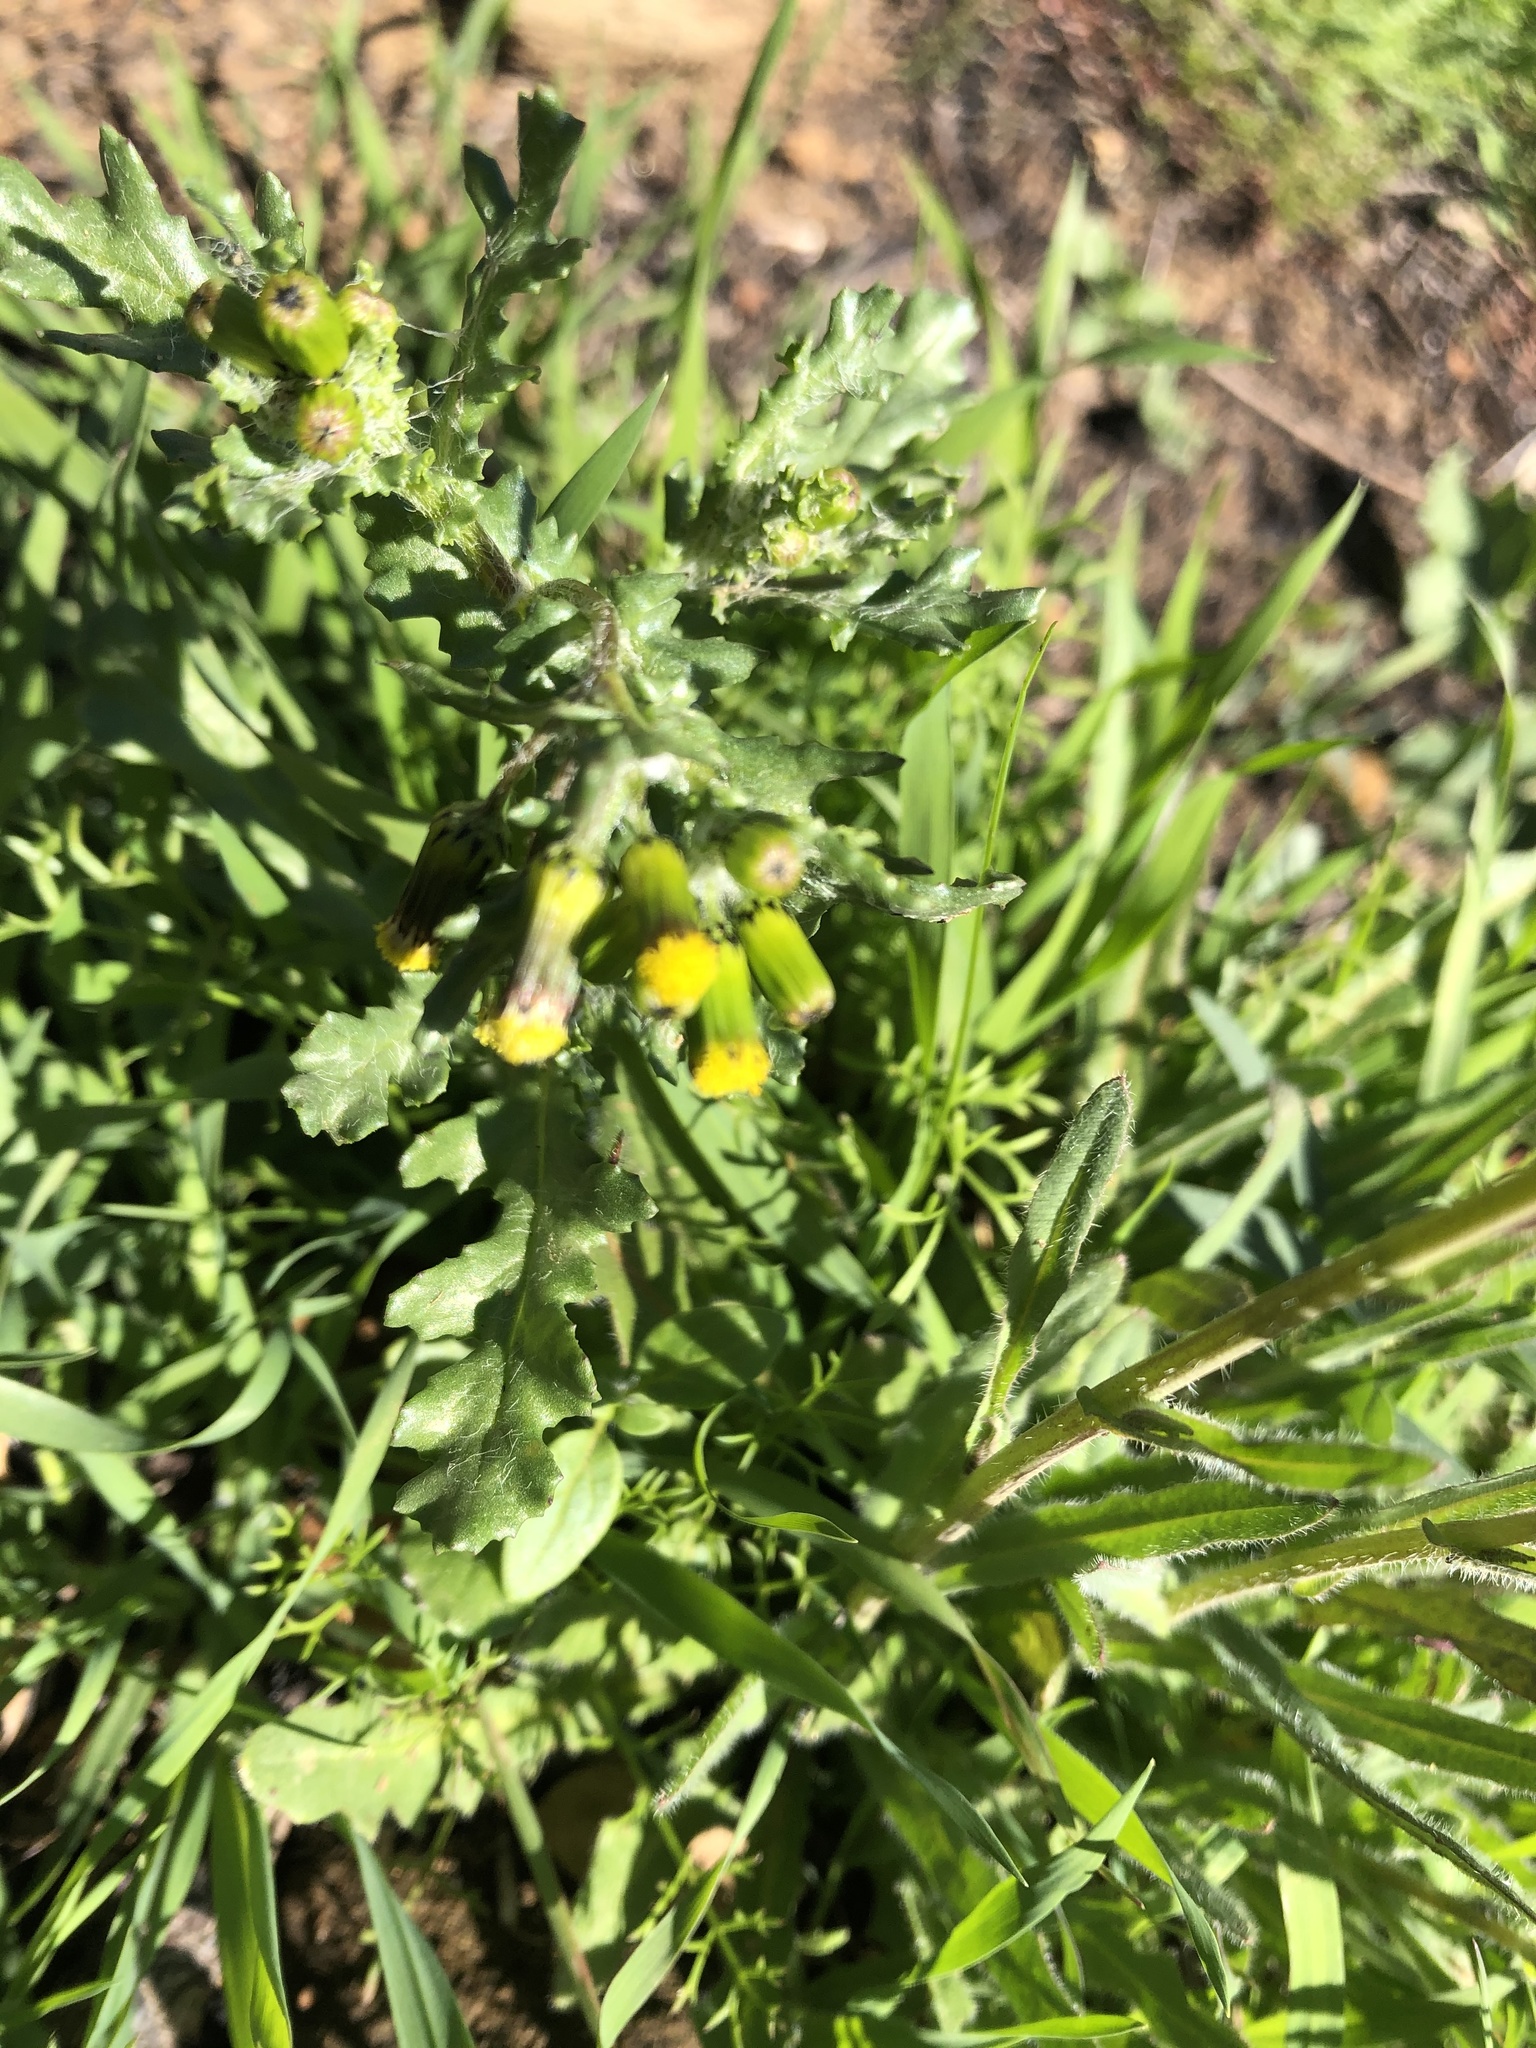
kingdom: Plantae
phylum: Tracheophyta
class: Magnoliopsida
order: Asterales
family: Asteraceae
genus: Senecio
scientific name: Senecio vulgaris
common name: Old-man-in-the-spring
